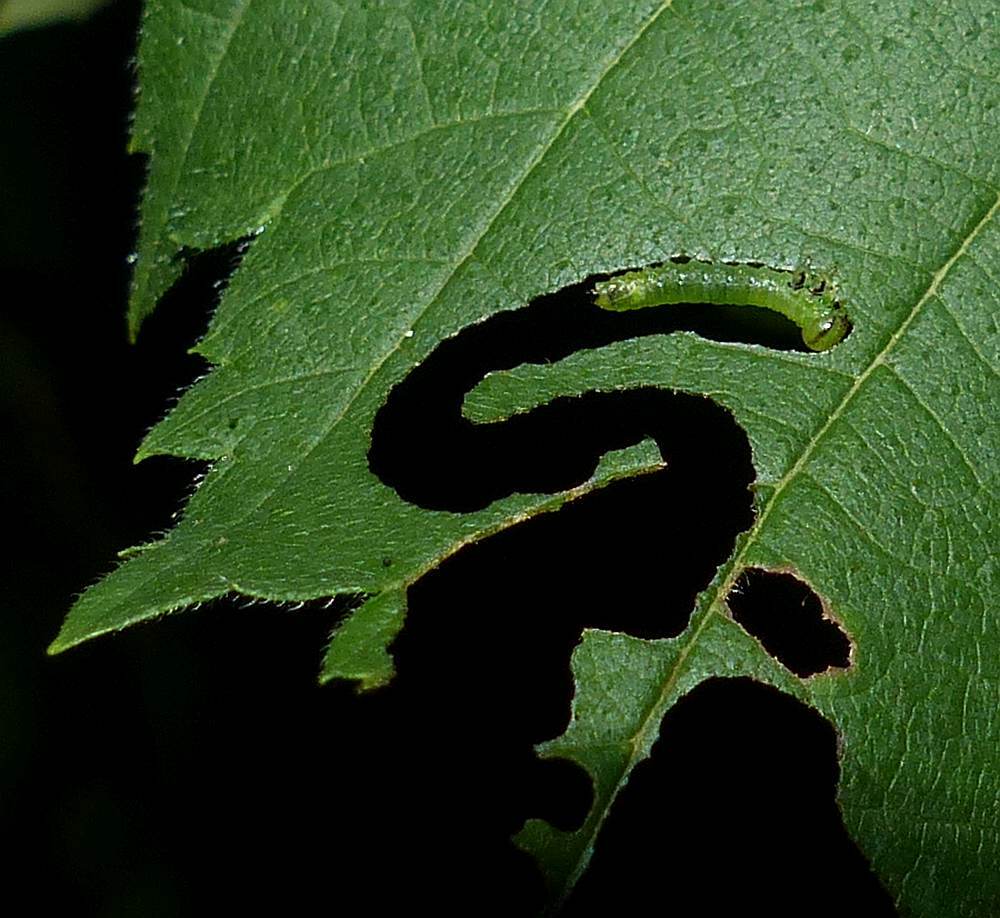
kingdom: Animalia
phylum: Arthropoda
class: Insecta
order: Hymenoptera
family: Argidae
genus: Aproceros
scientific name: Aproceros leucopoda
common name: Zig-zag elm sawfly
